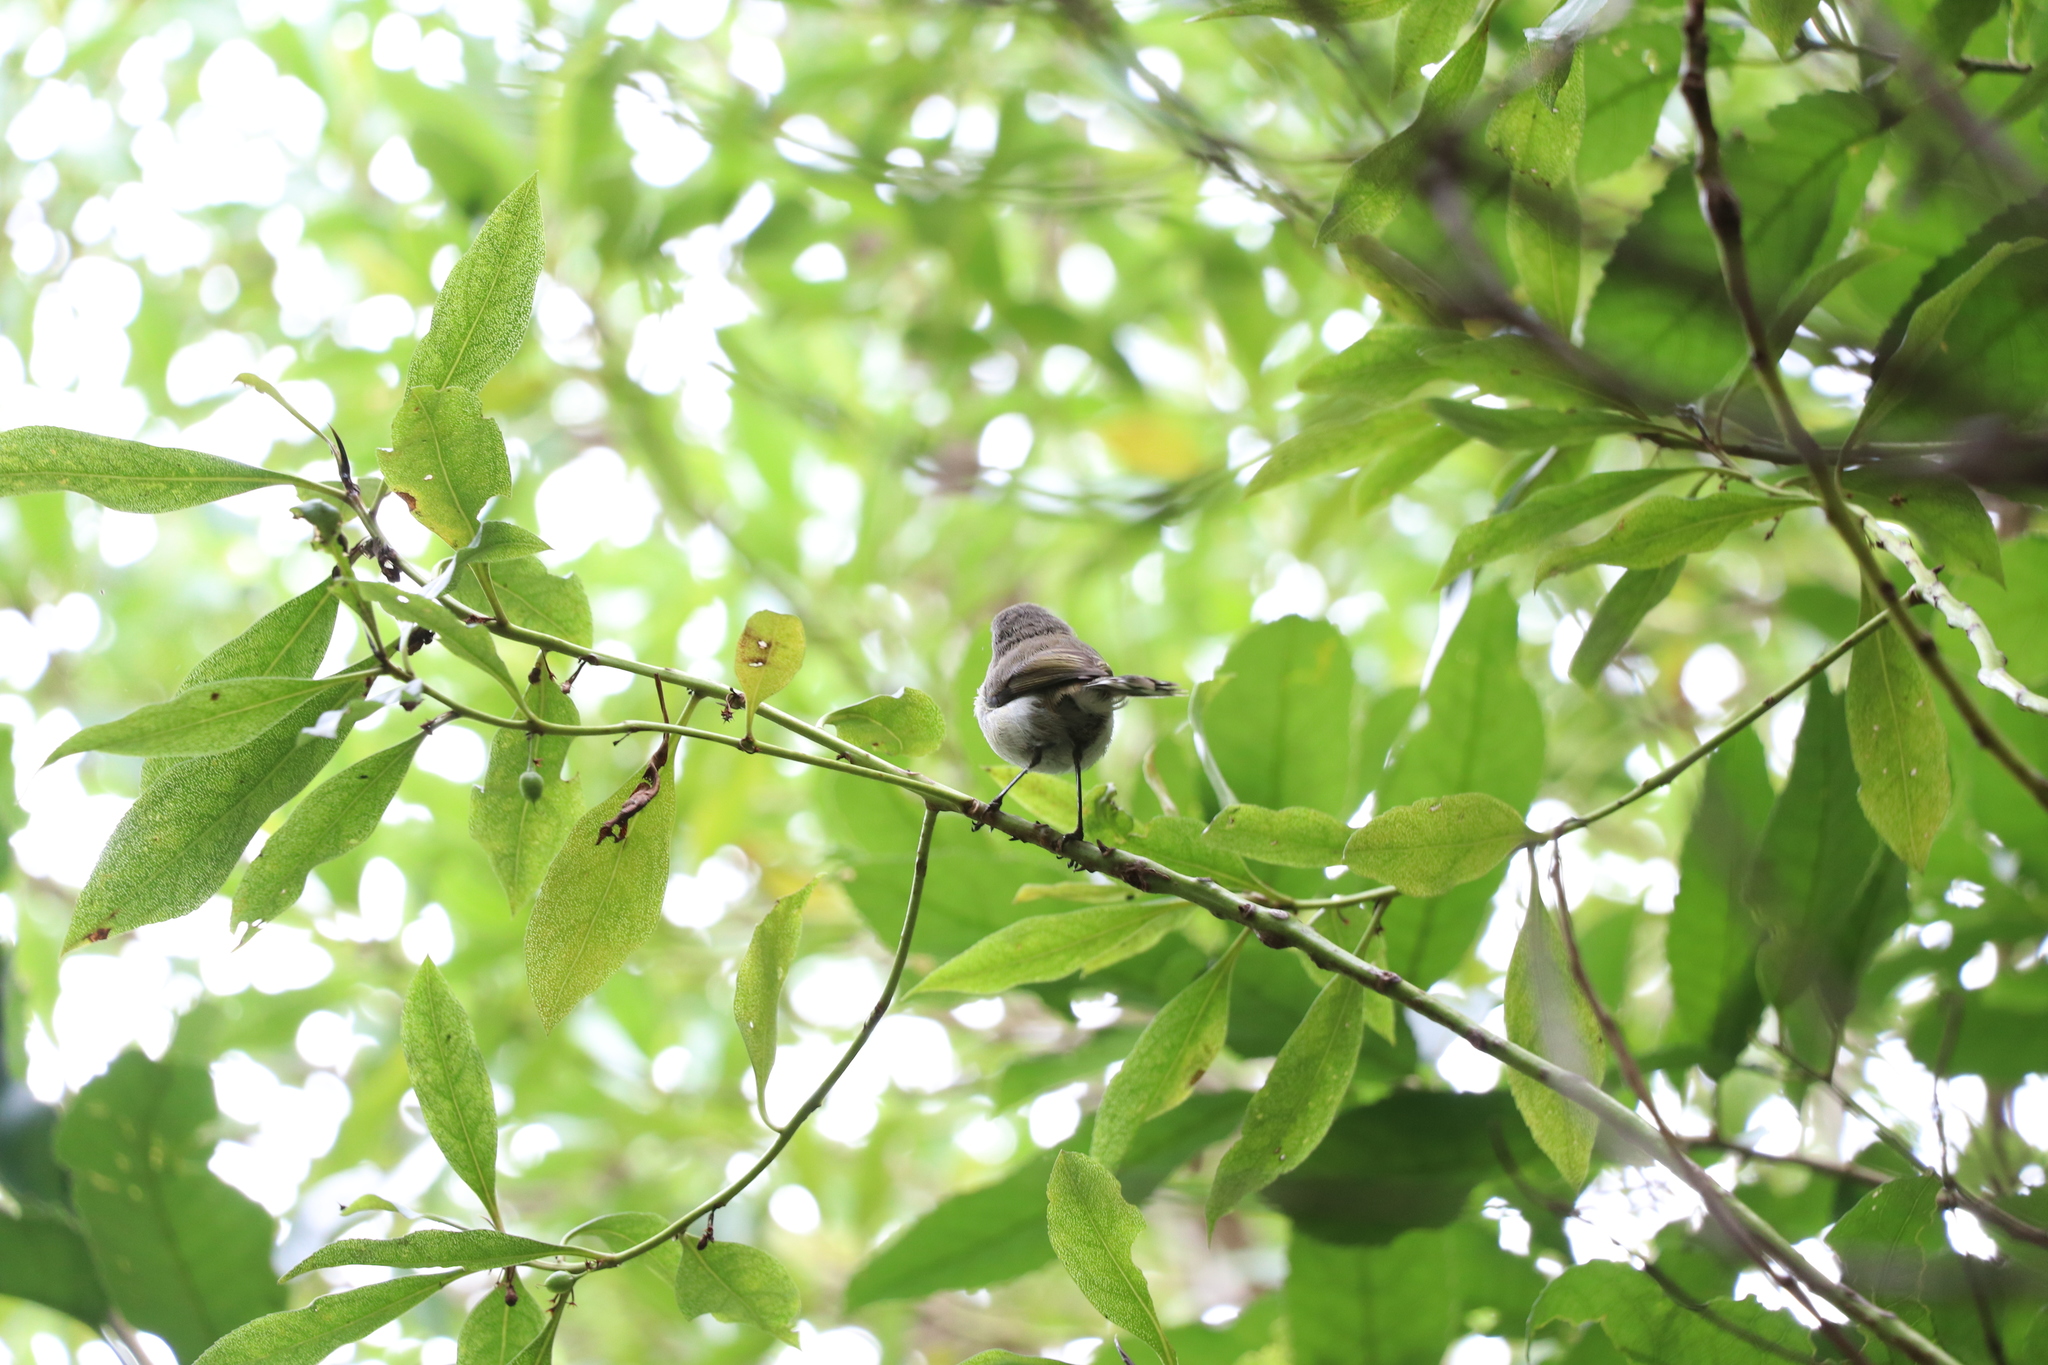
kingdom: Animalia
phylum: Chordata
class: Aves
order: Passeriformes
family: Acanthizidae
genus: Gerygone
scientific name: Gerygone igata
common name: Grey gerygone
